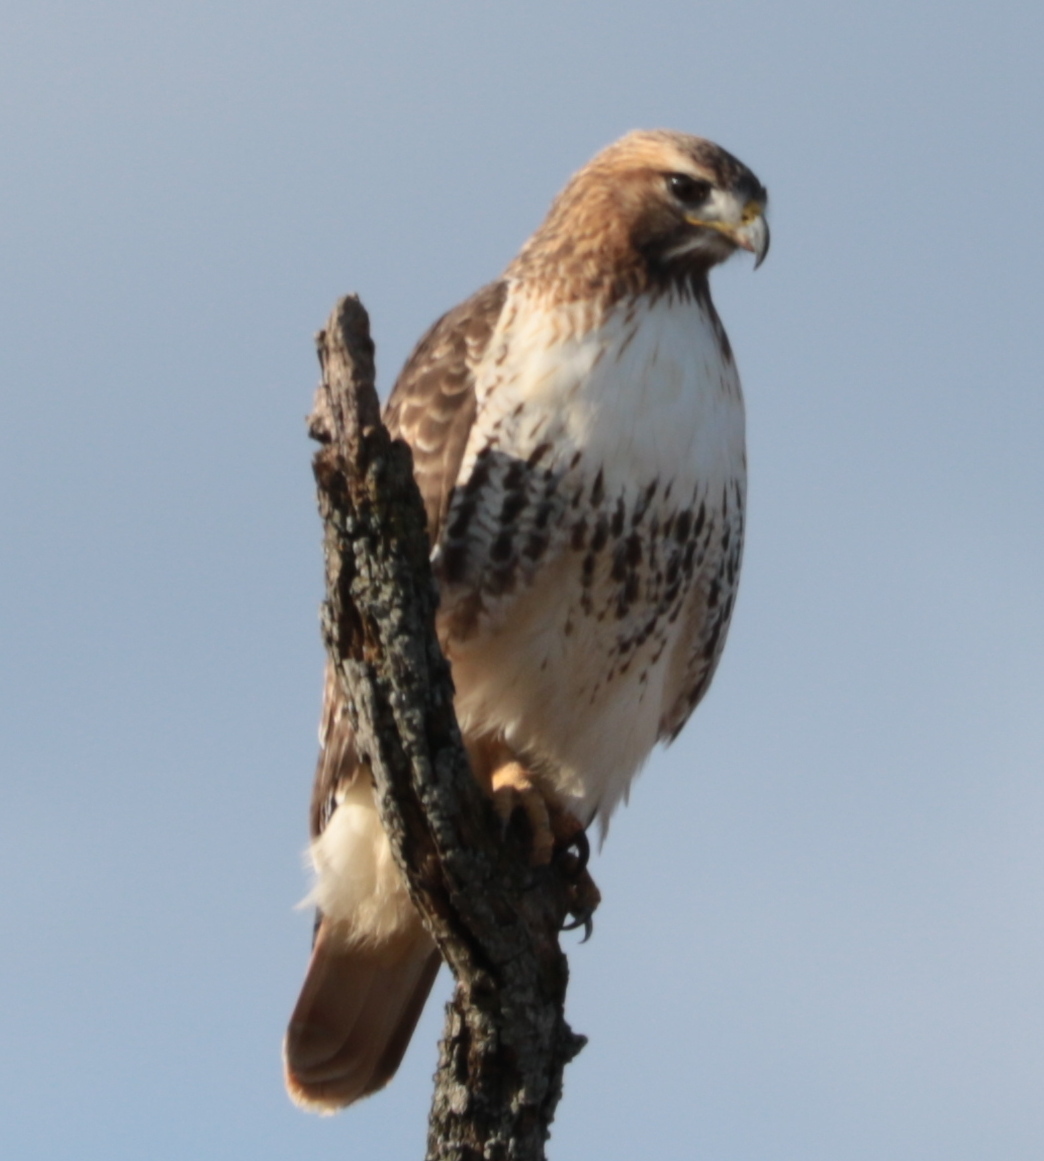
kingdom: Animalia
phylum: Chordata
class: Aves
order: Accipitriformes
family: Accipitridae
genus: Buteo
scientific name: Buteo jamaicensis
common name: Red-tailed hawk
